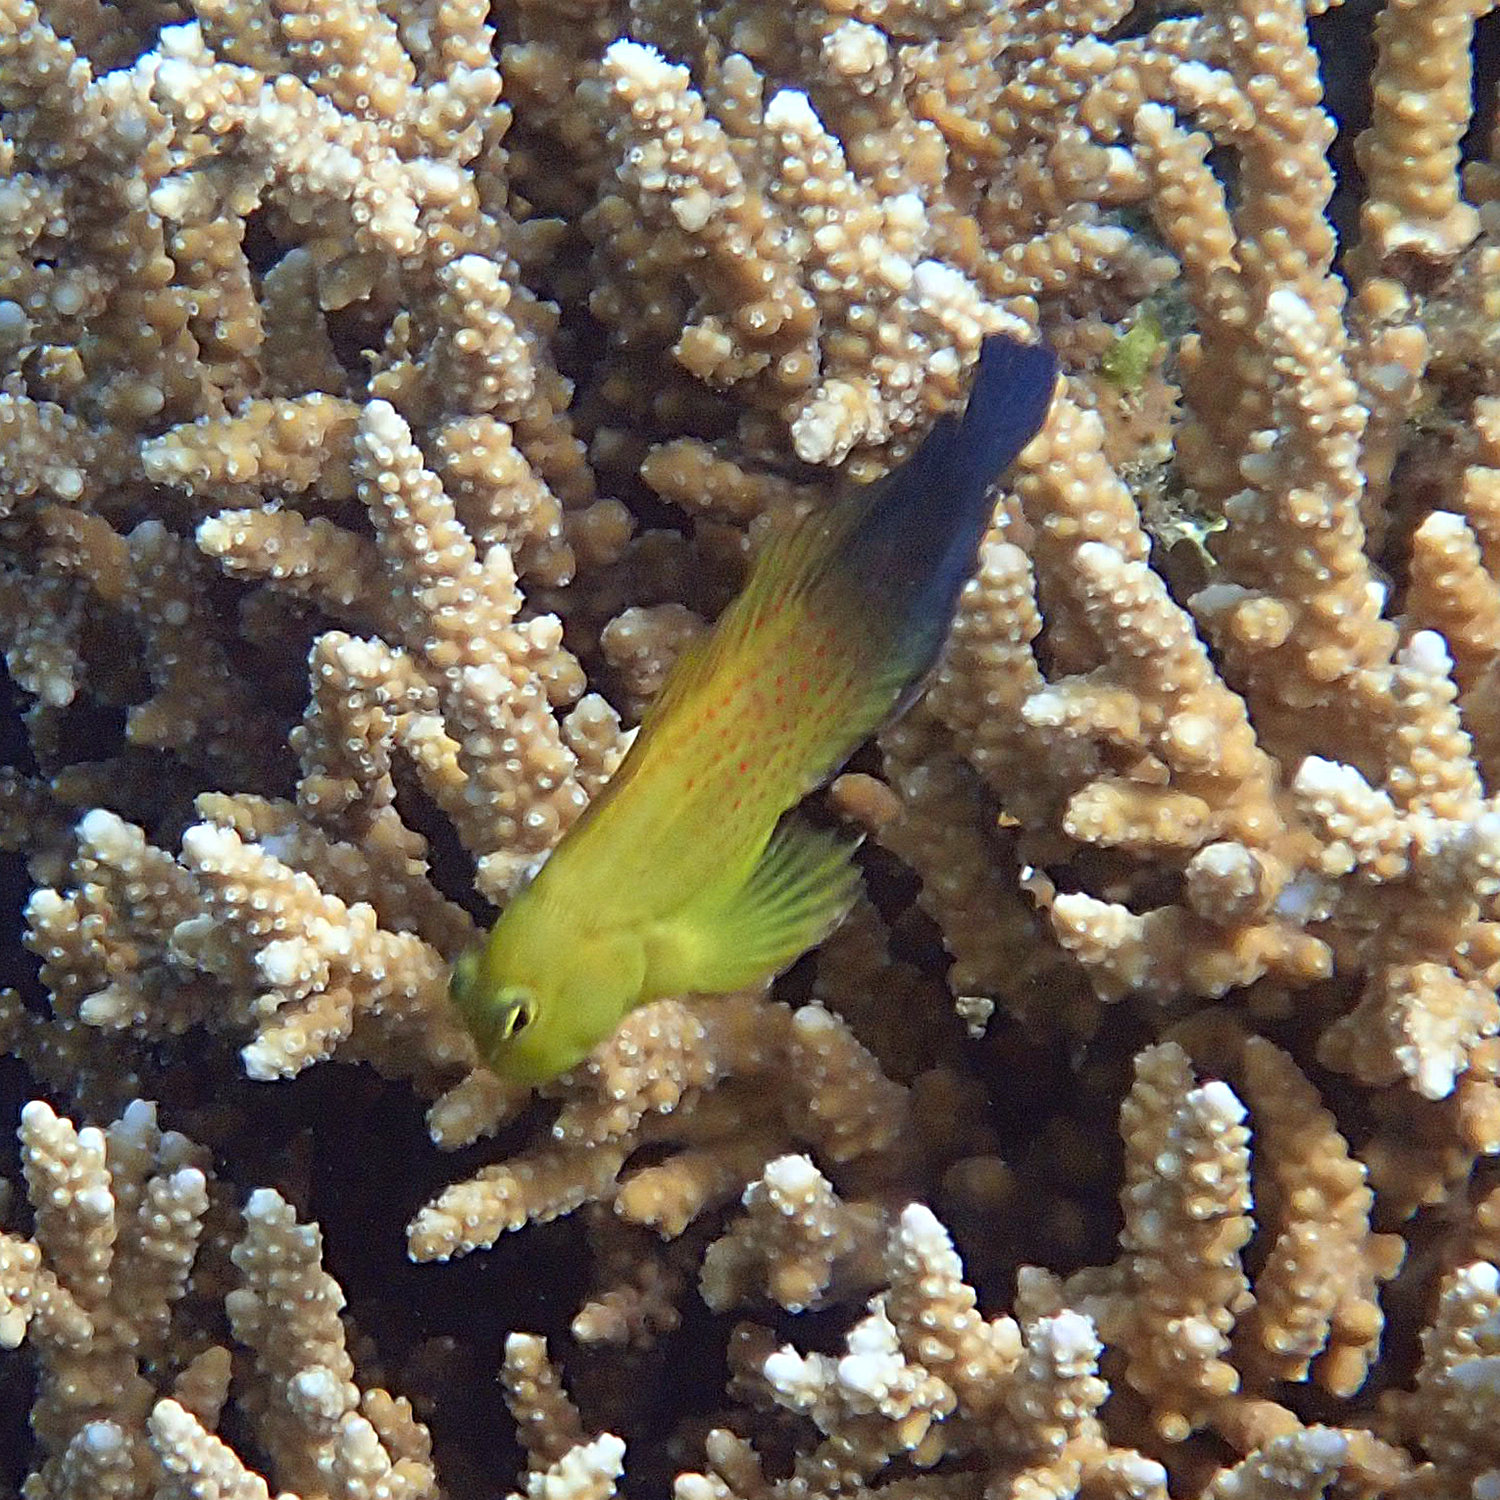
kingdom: Animalia
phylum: Chordata
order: Perciformes
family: Blenniidae
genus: Cirripectes
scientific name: Cirripectes chelomatus
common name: Lady musgrave blenny
